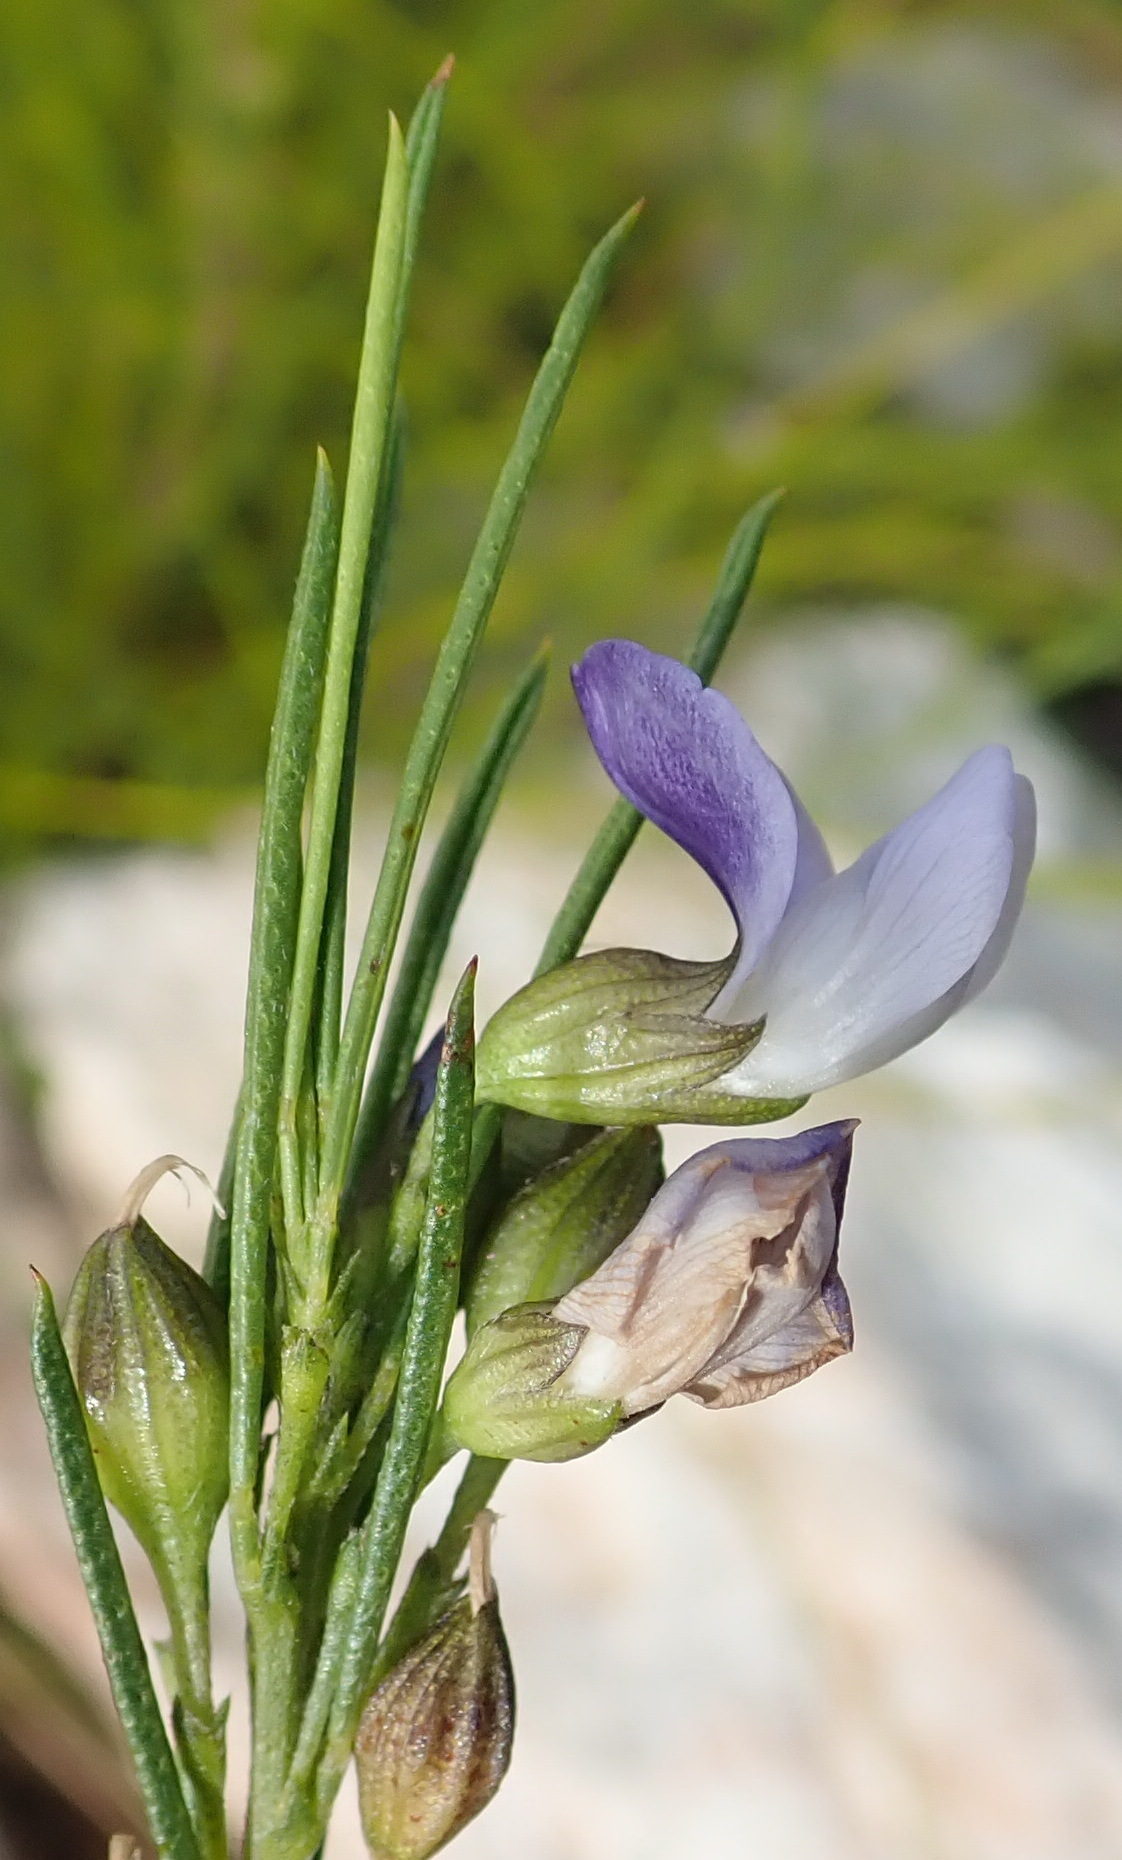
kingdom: Plantae
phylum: Tracheophyta
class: Magnoliopsida
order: Fabales
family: Fabaceae
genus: Psoralea
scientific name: Psoralea diturnerae
